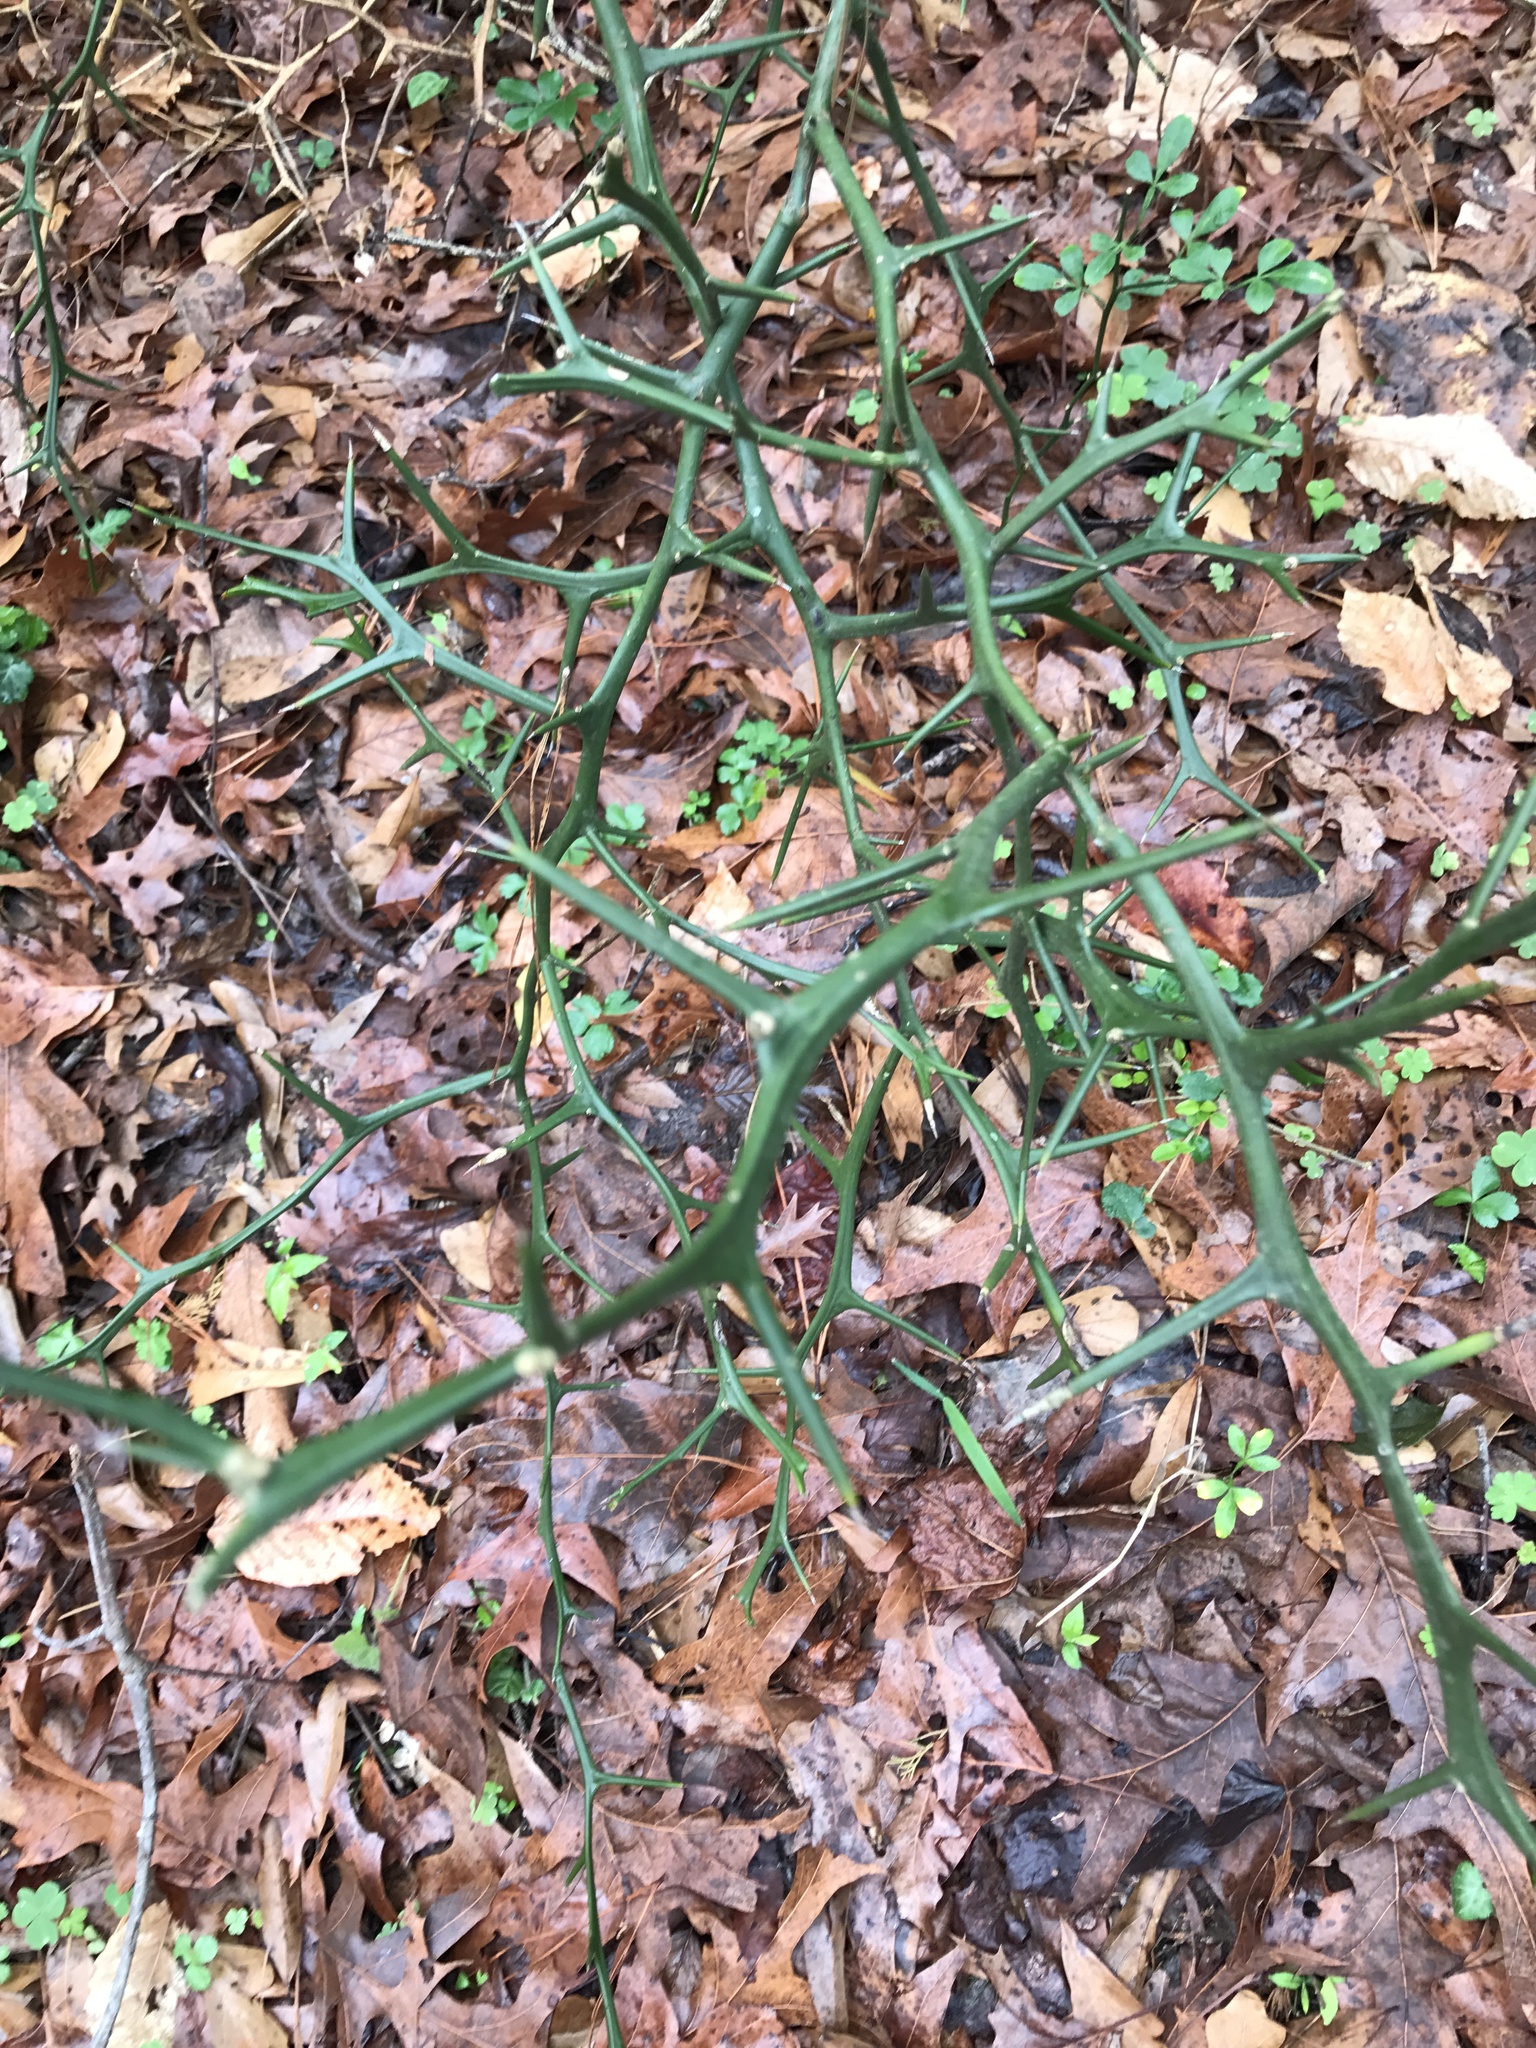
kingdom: Plantae
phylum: Tracheophyta
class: Magnoliopsida
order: Sapindales
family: Rutaceae
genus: Citrus
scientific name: Citrus trifoliata
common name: Japanese bitter-orange
